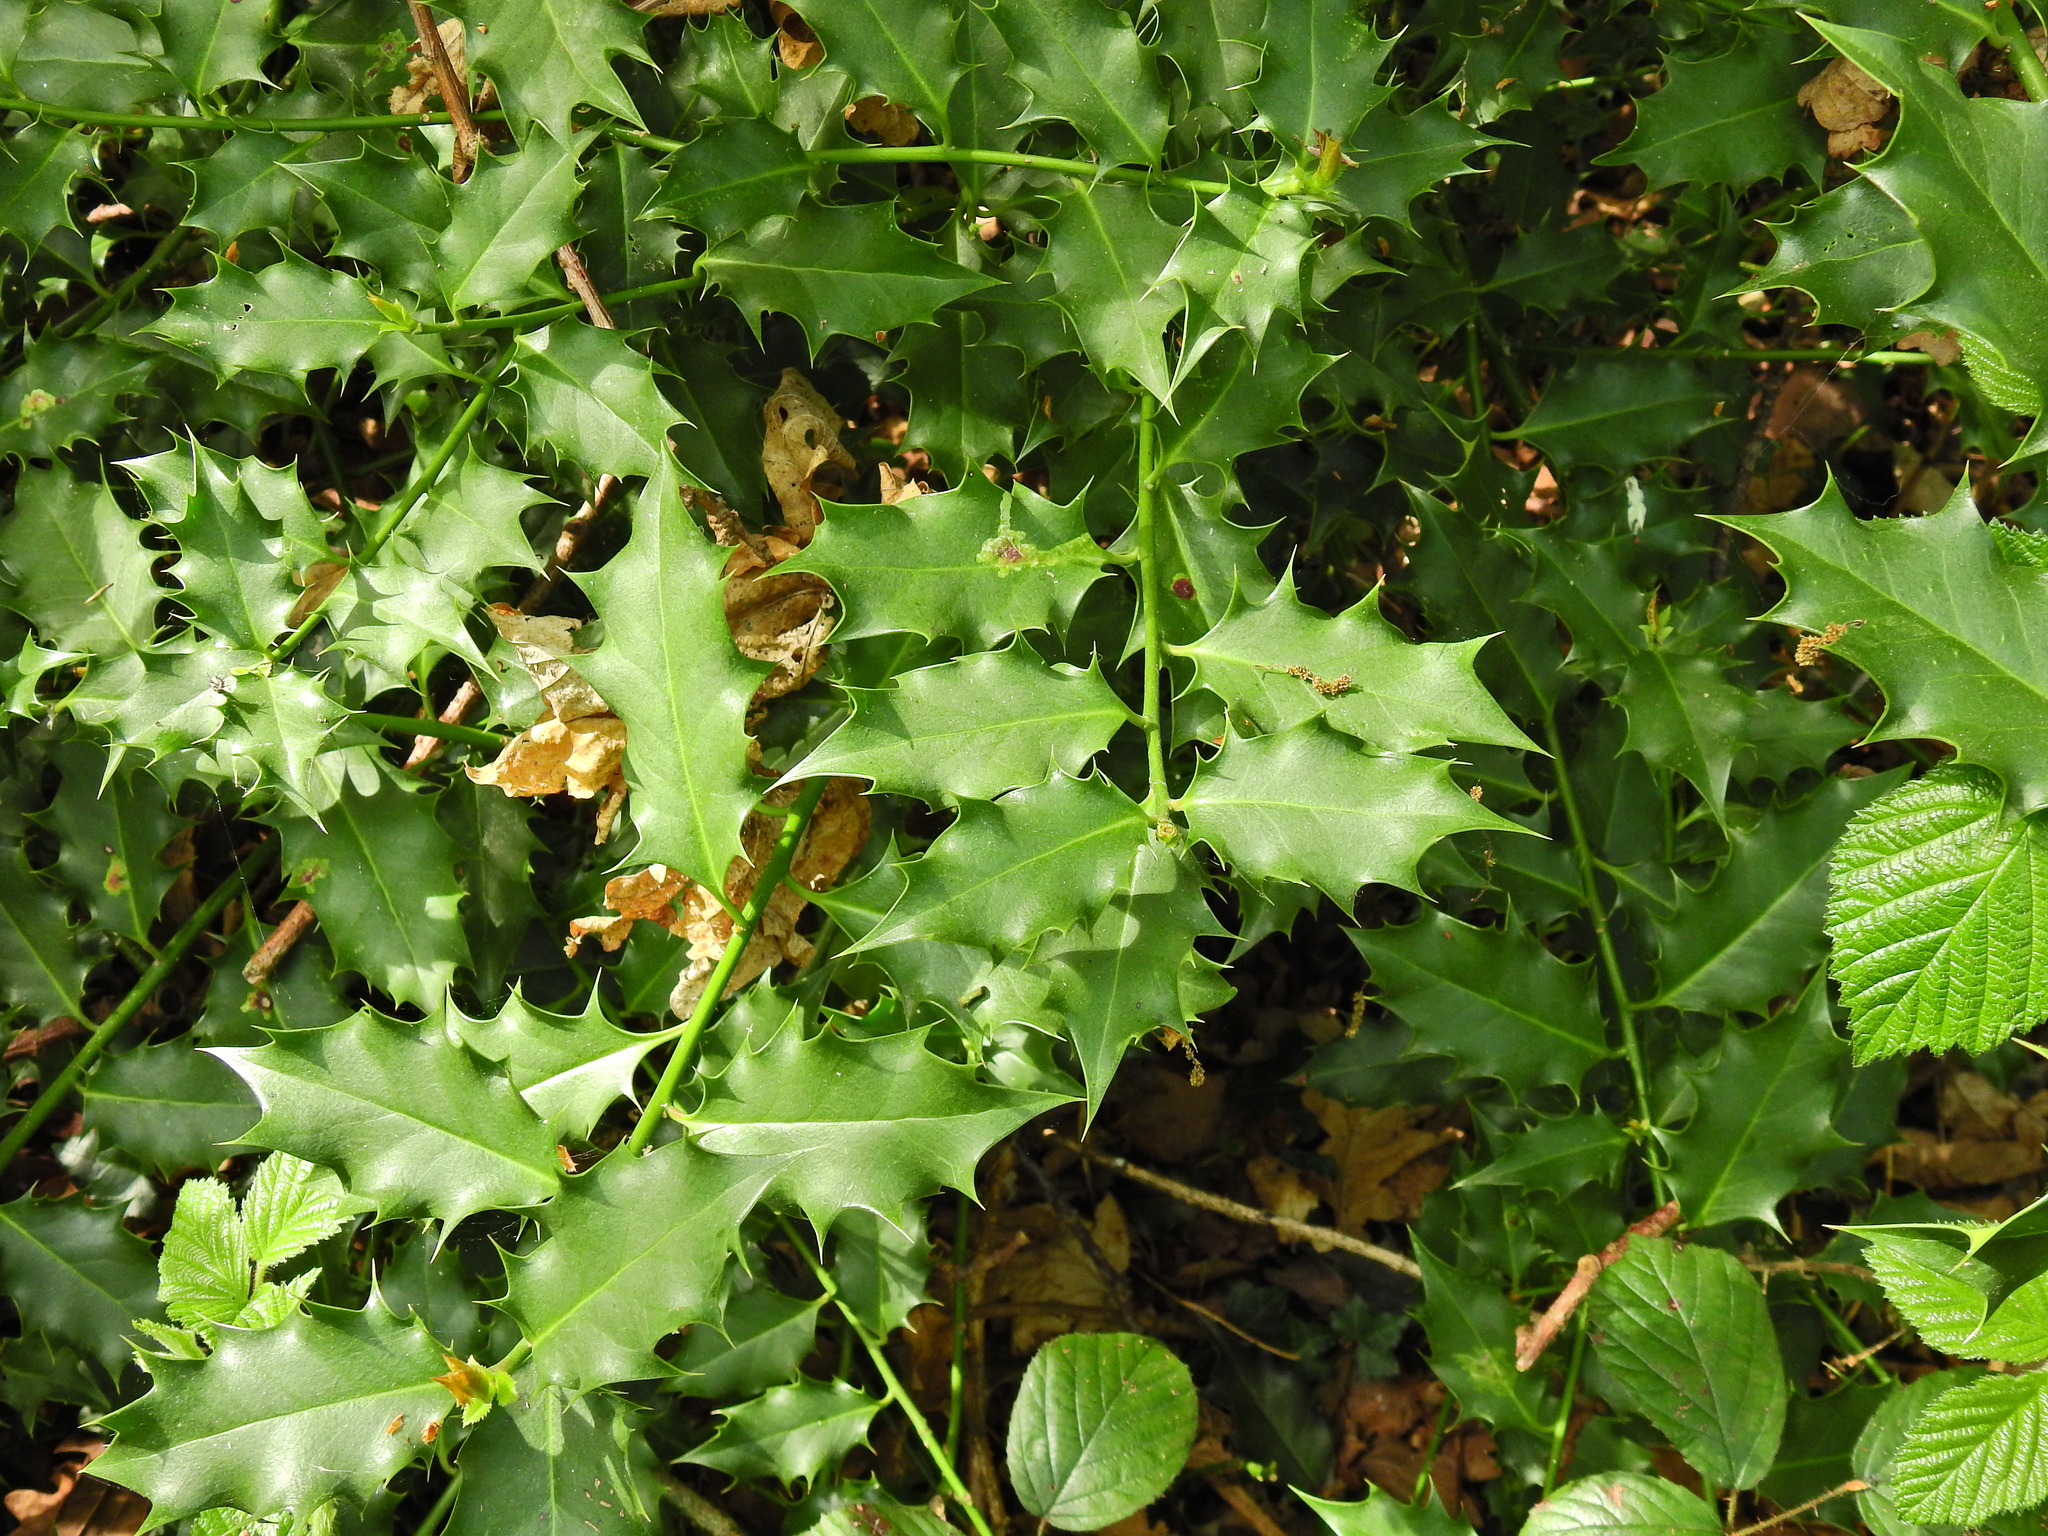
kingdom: Plantae
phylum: Tracheophyta
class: Magnoliopsida
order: Aquifoliales
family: Aquifoliaceae
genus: Ilex
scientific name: Ilex aquifolium
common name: English holly
